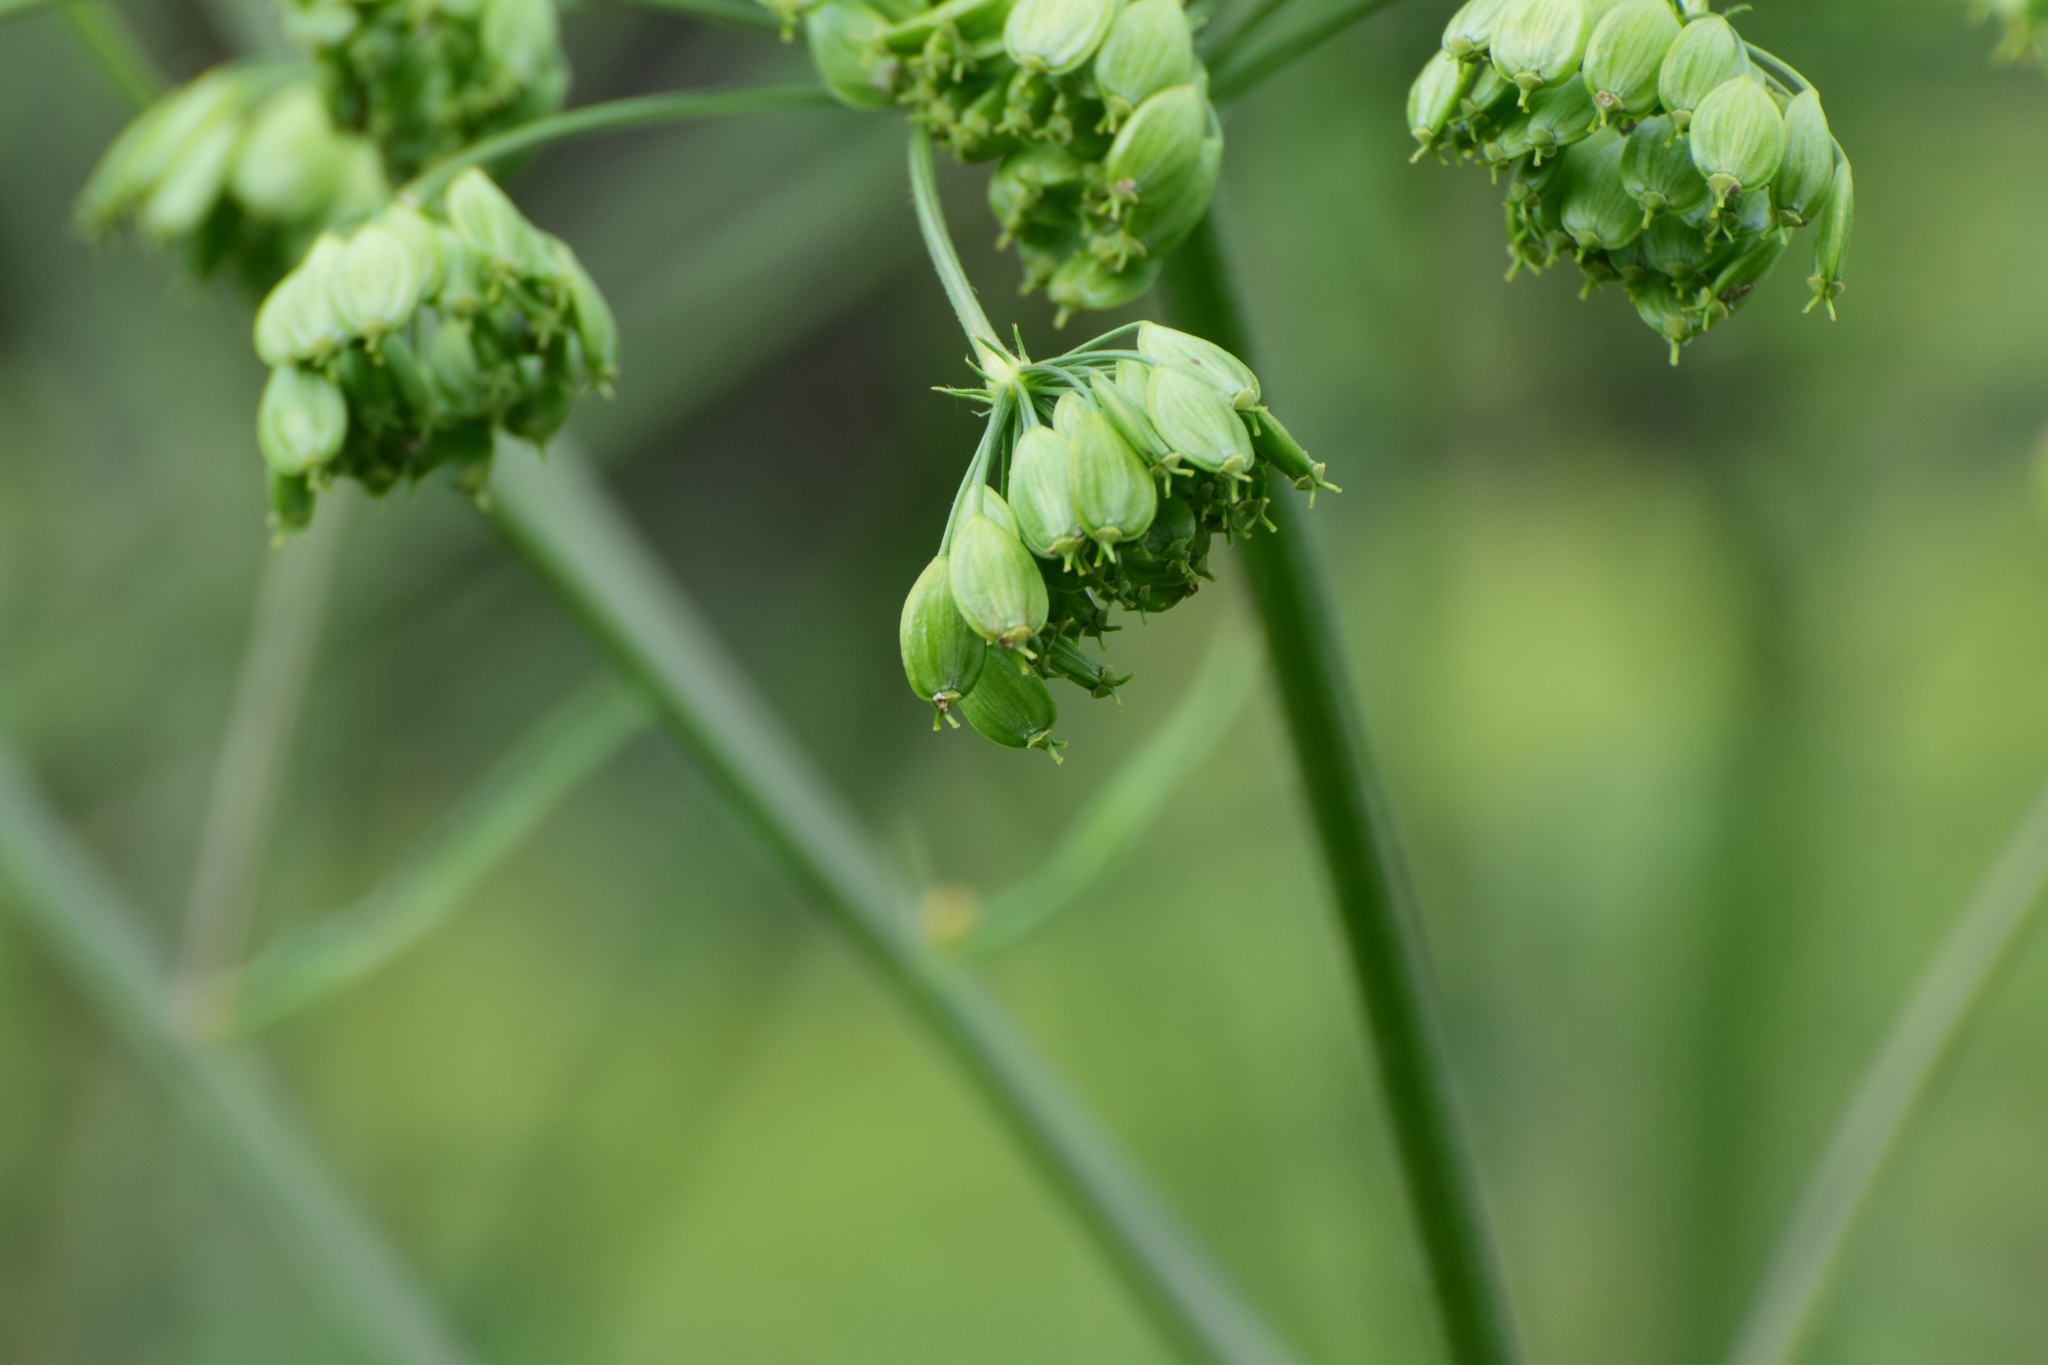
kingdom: Plantae
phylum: Tracheophyta
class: Magnoliopsida
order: Apiales
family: Apiaceae
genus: Heracleum
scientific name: Heracleum sphondylium
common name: Hogweed
